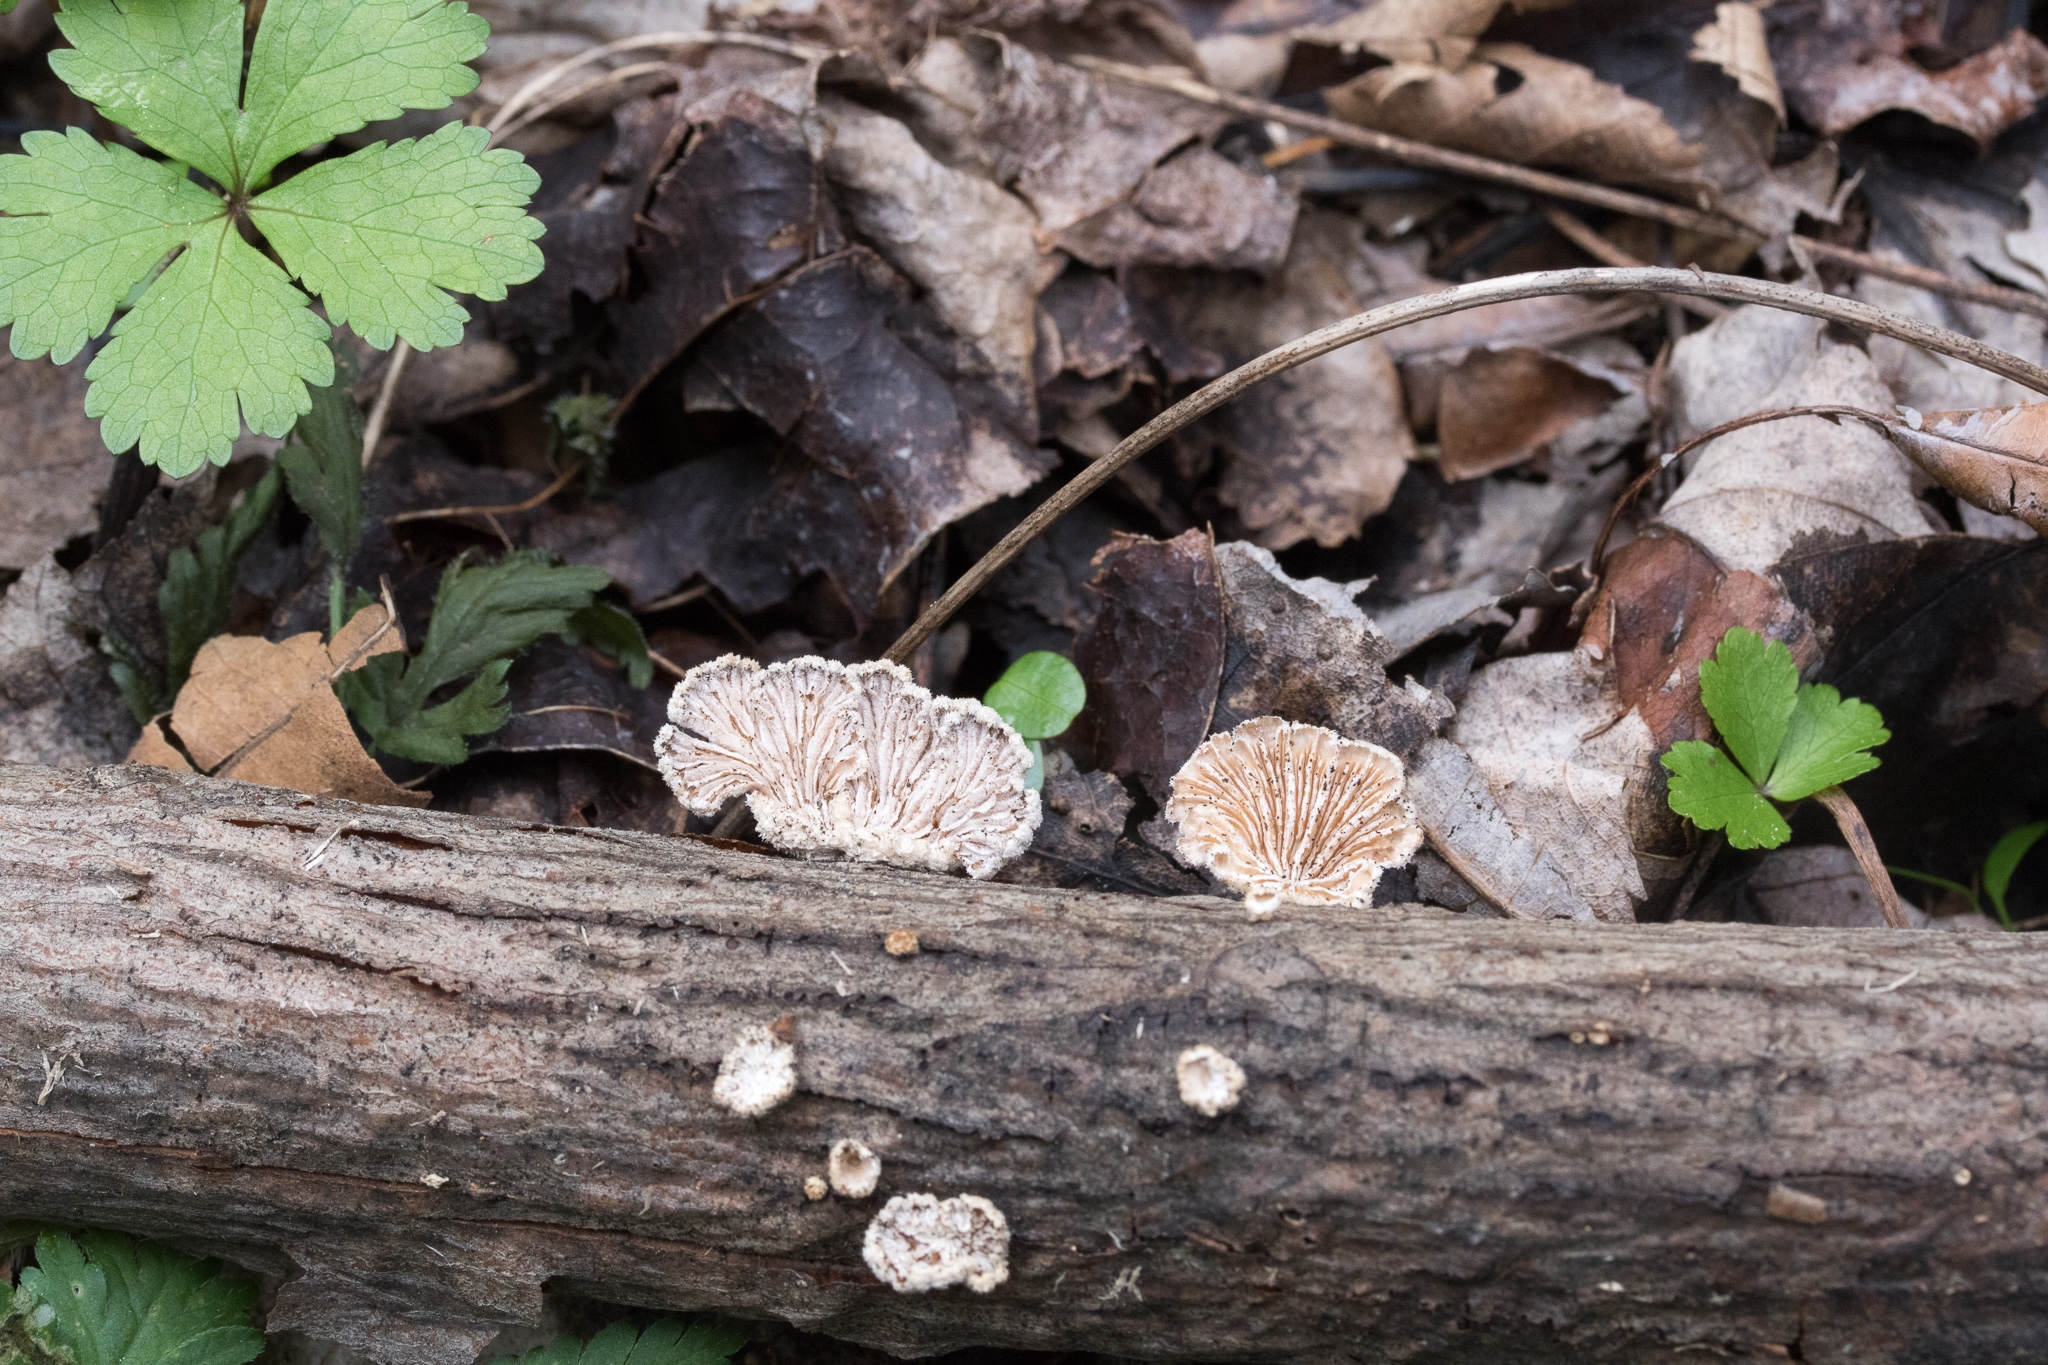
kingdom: Fungi
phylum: Basidiomycota
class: Agaricomycetes
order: Agaricales
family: Schizophyllaceae
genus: Schizophyllum
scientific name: Schizophyllum commune
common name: Common porecrust
